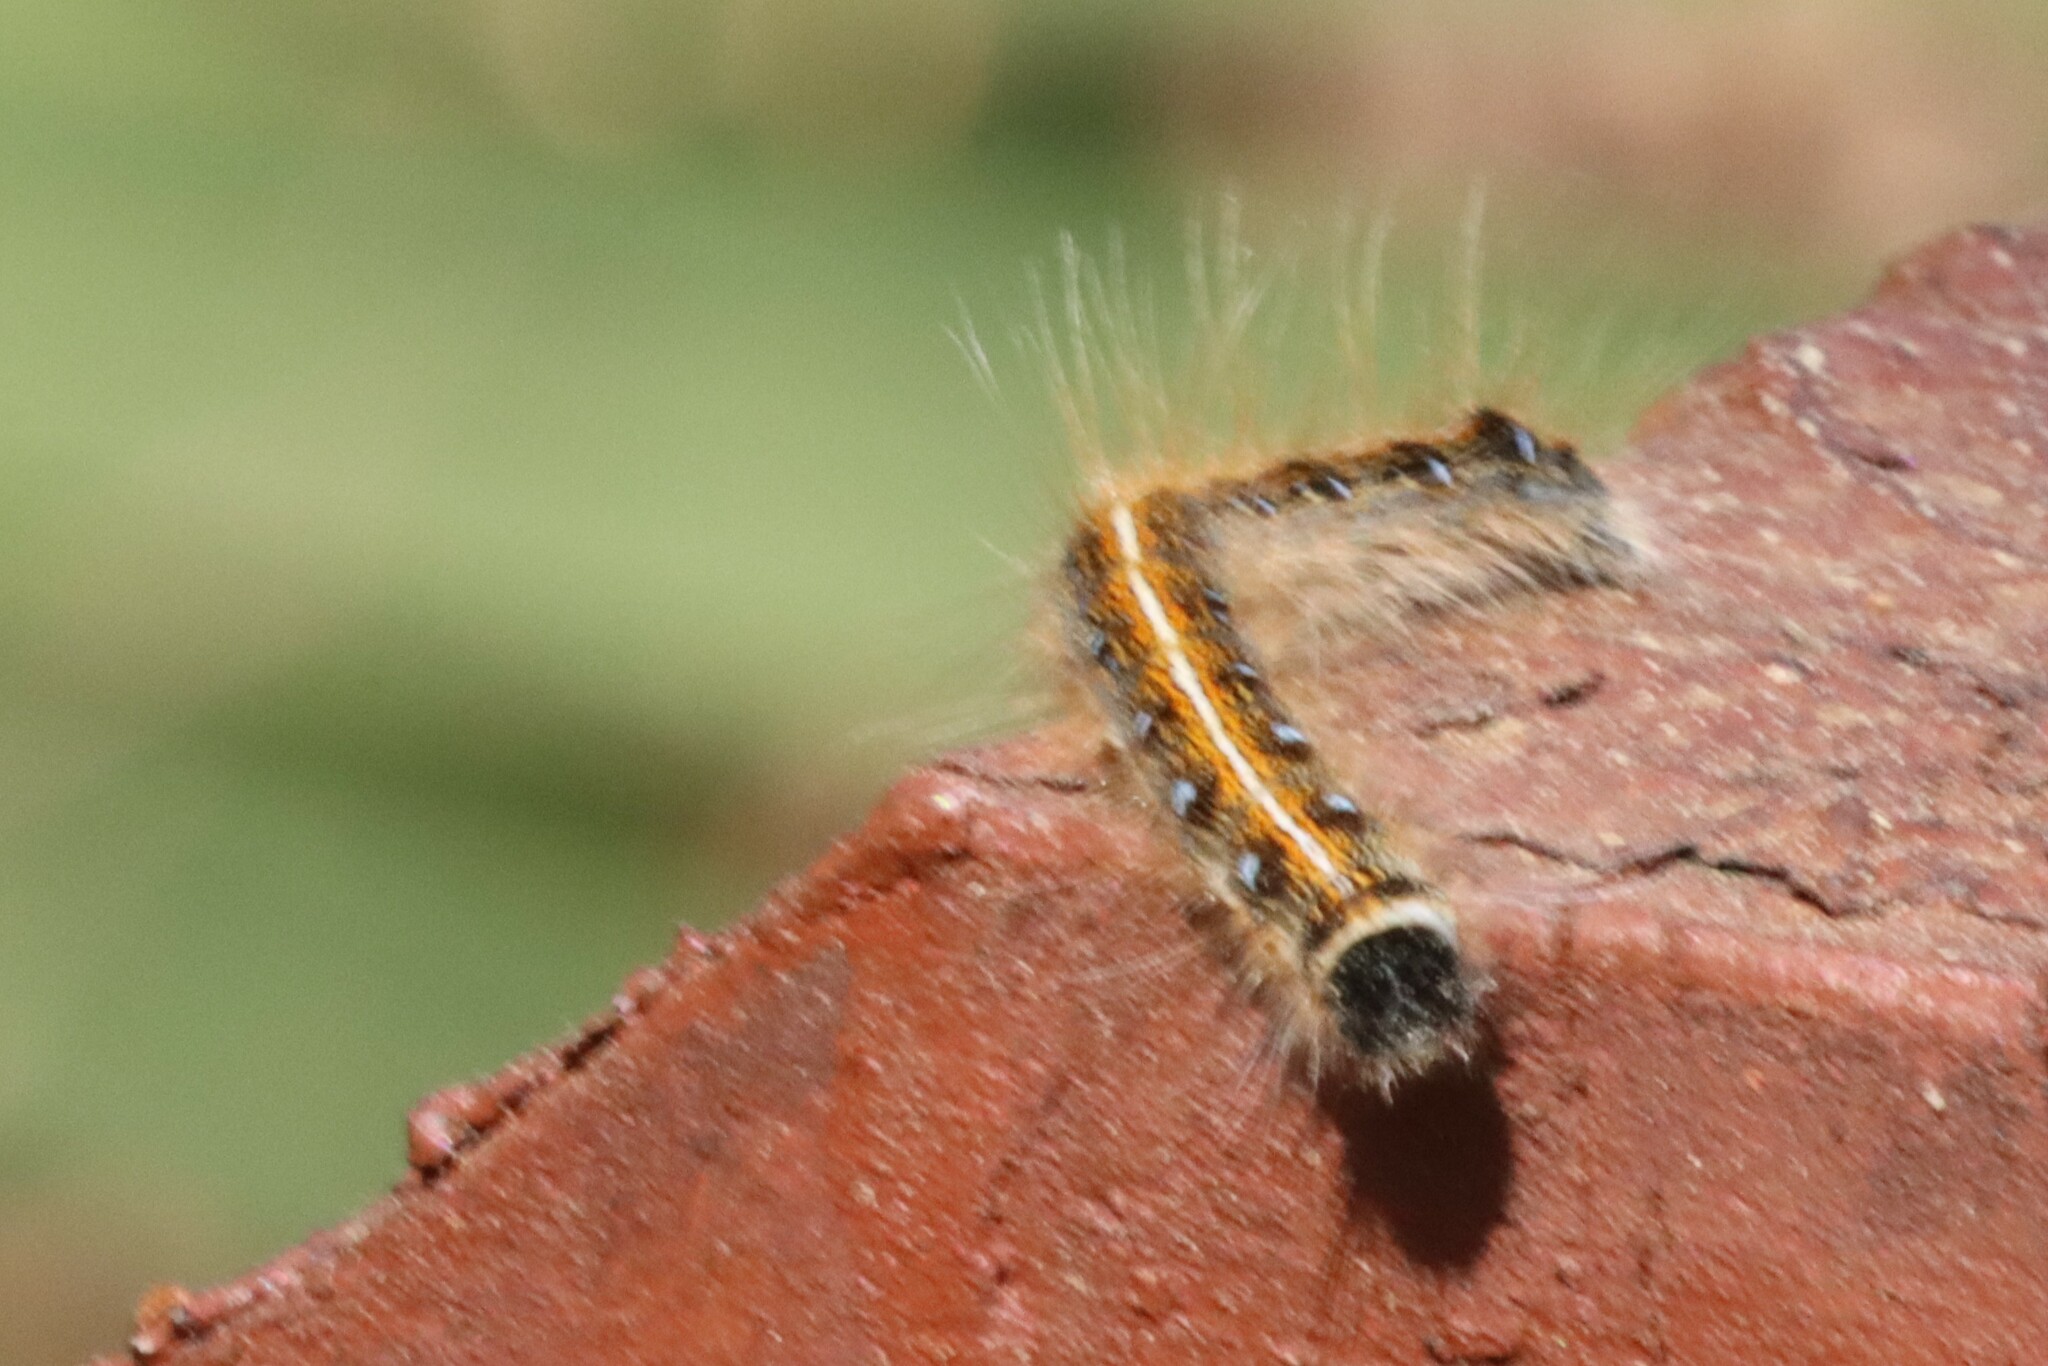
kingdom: Animalia
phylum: Arthropoda
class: Insecta
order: Lepidoptera
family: Lasiocampidae
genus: Malacosoma
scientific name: Malacosoma americana
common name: Eastern tent caterpillar moth
